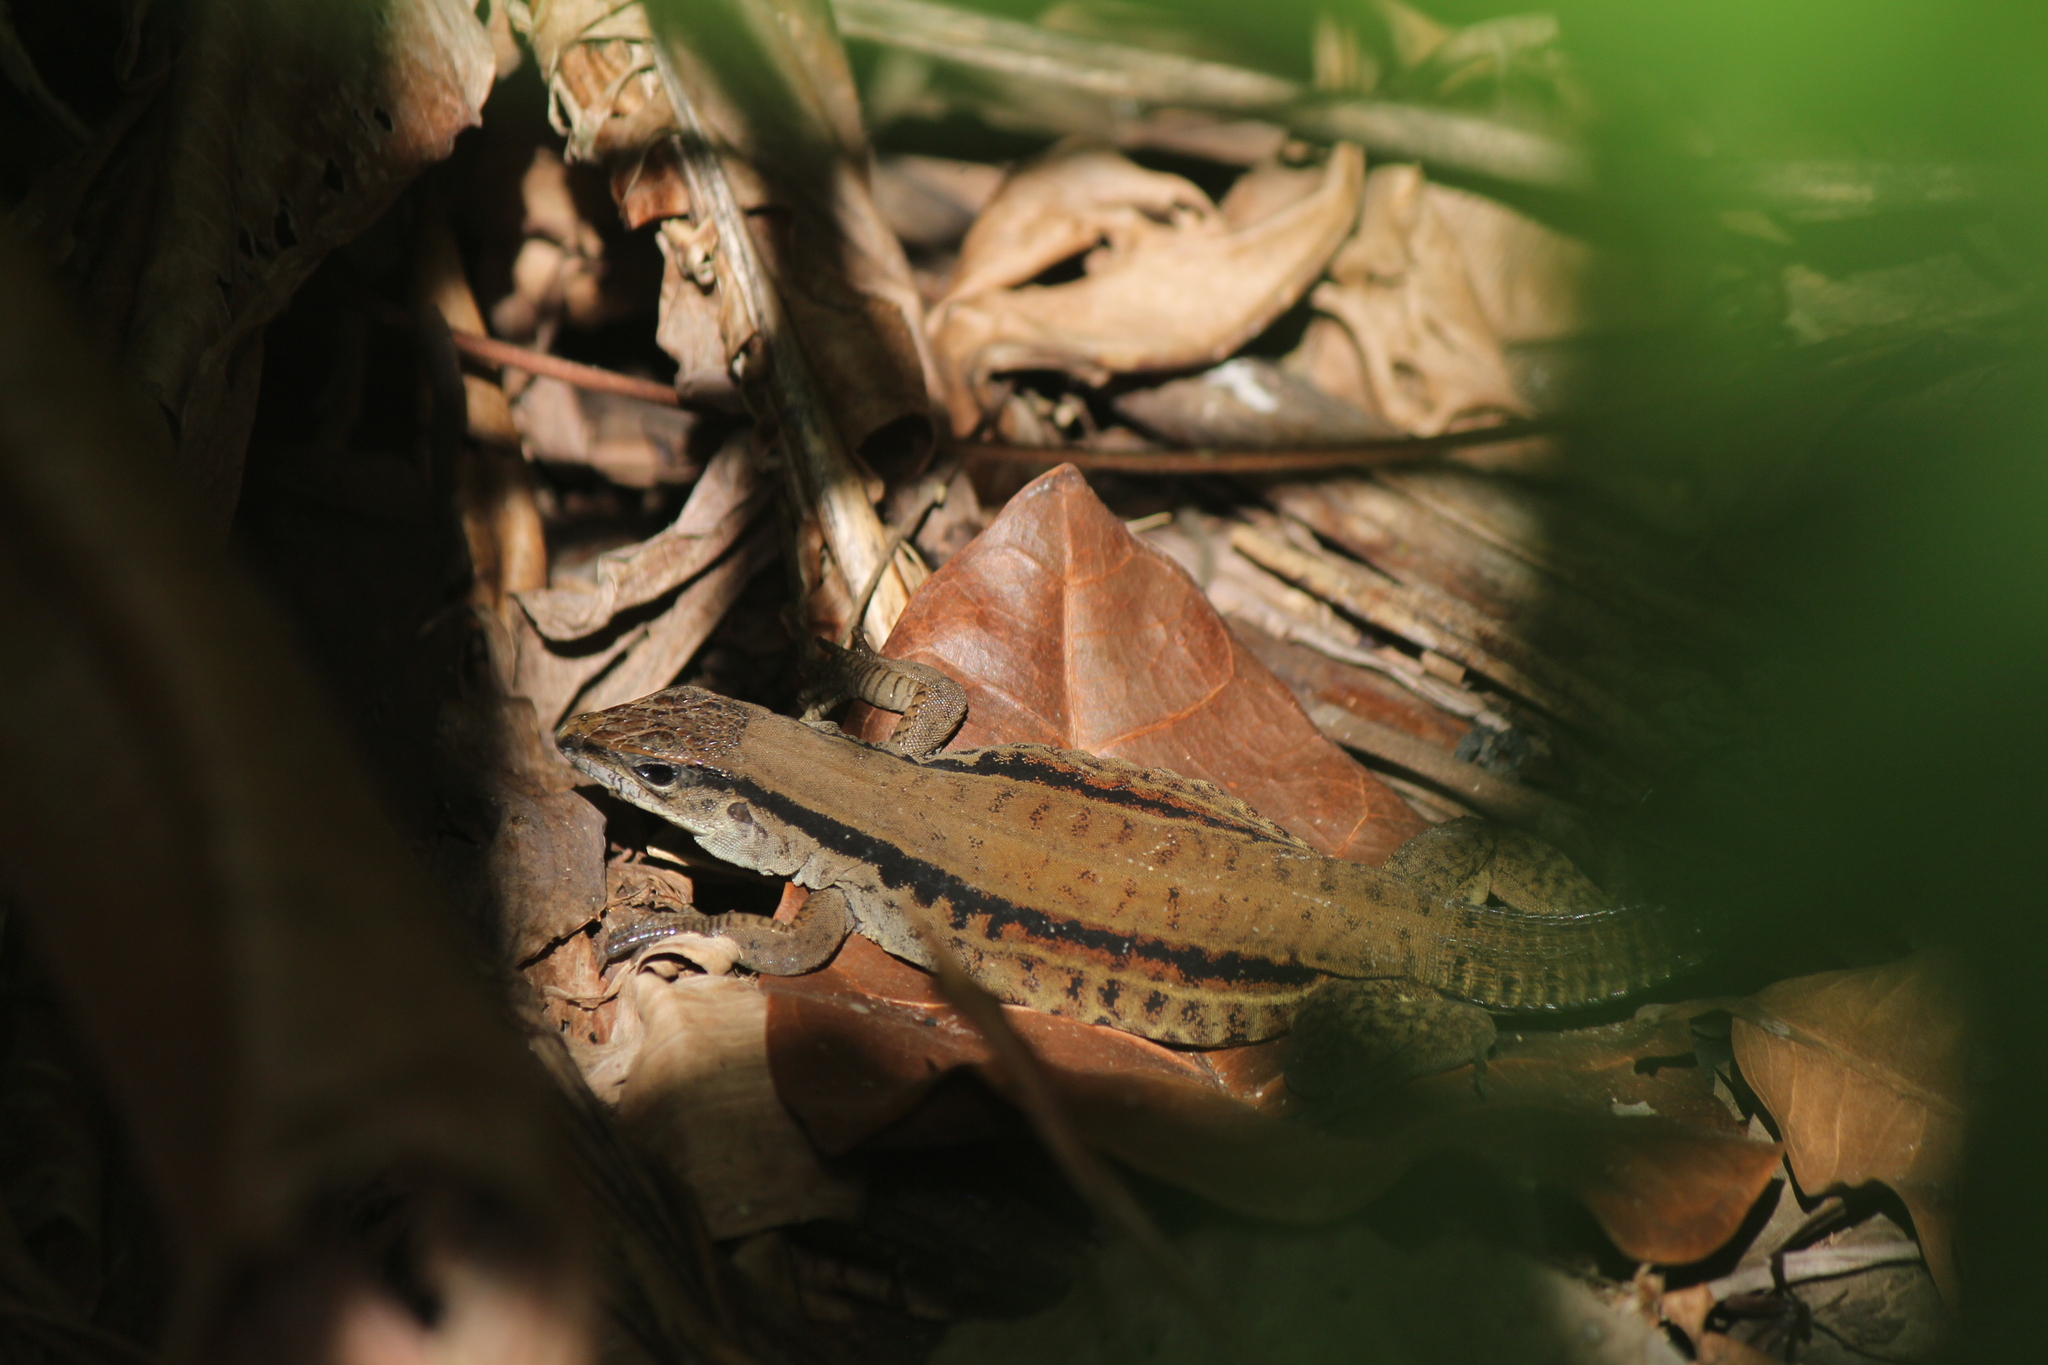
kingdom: Animalia
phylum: Chordata
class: Squamata
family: Teiidae
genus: Holcosus
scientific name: Holcosus septemlineatus
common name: Seven-lined ameiva
